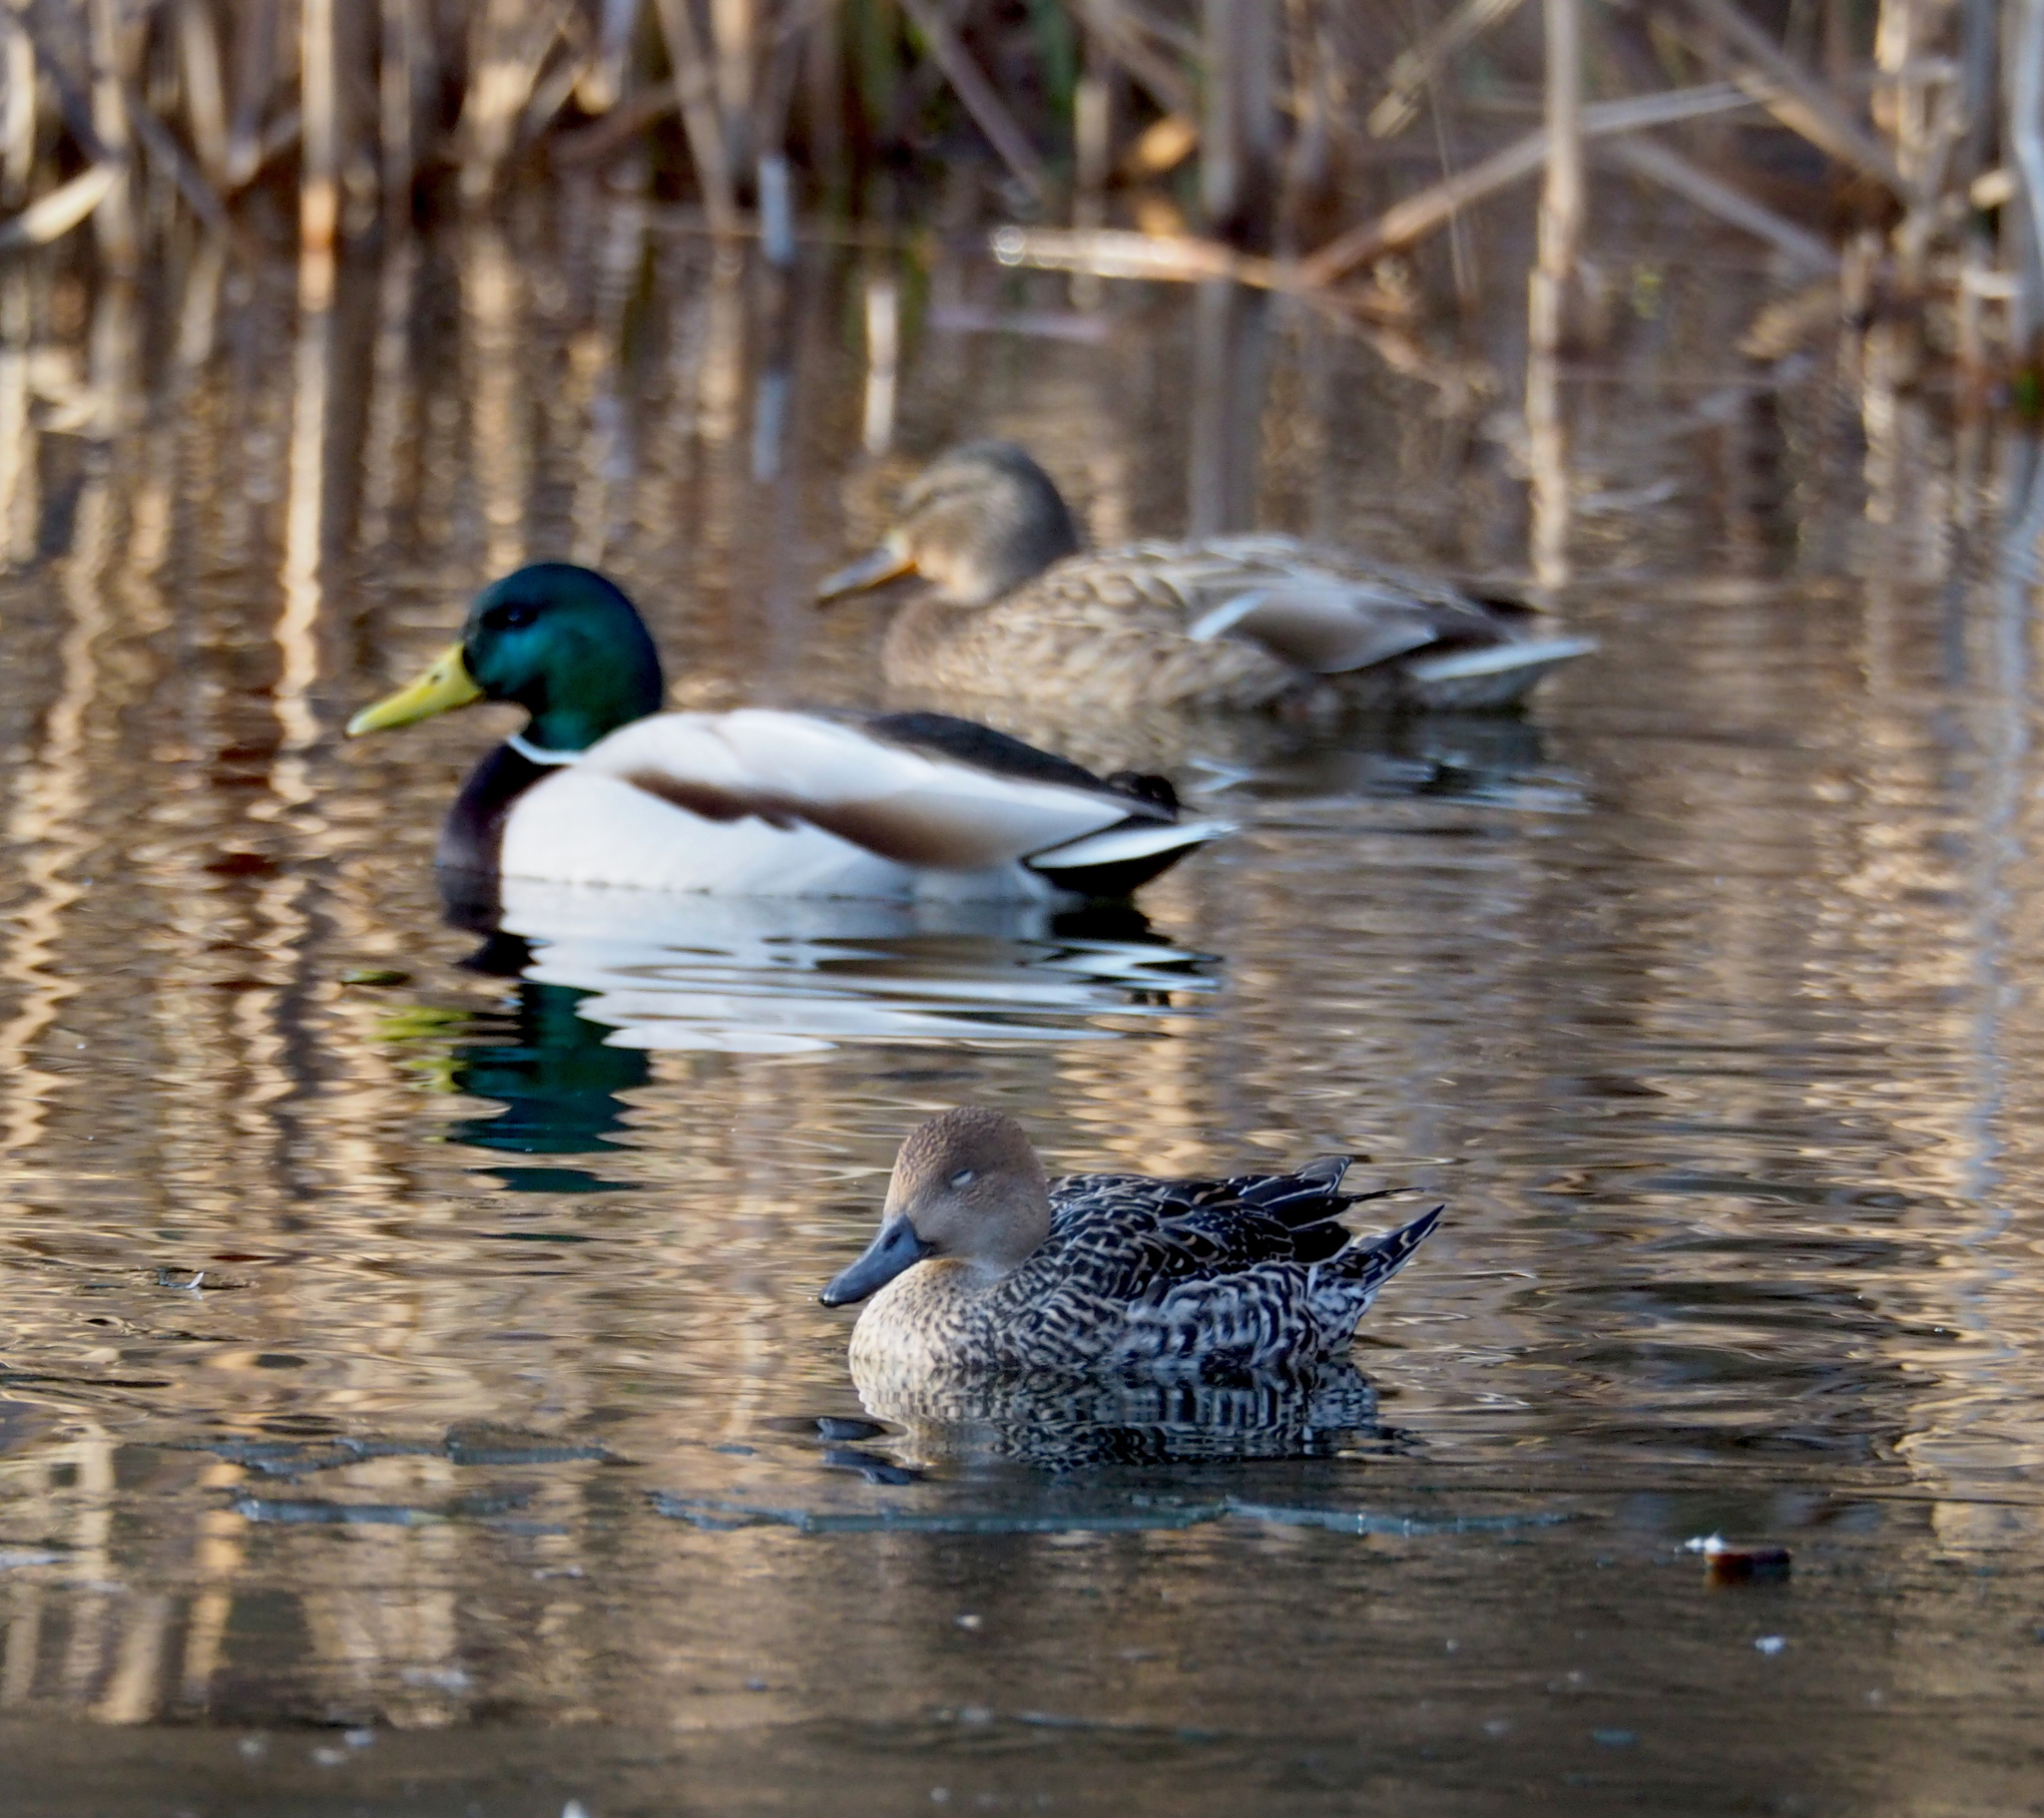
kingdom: Animalia
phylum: Chordata
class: Aves
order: Anseriformes
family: Anatidae
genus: Anas
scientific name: Anas acuta
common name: Northern pintail
